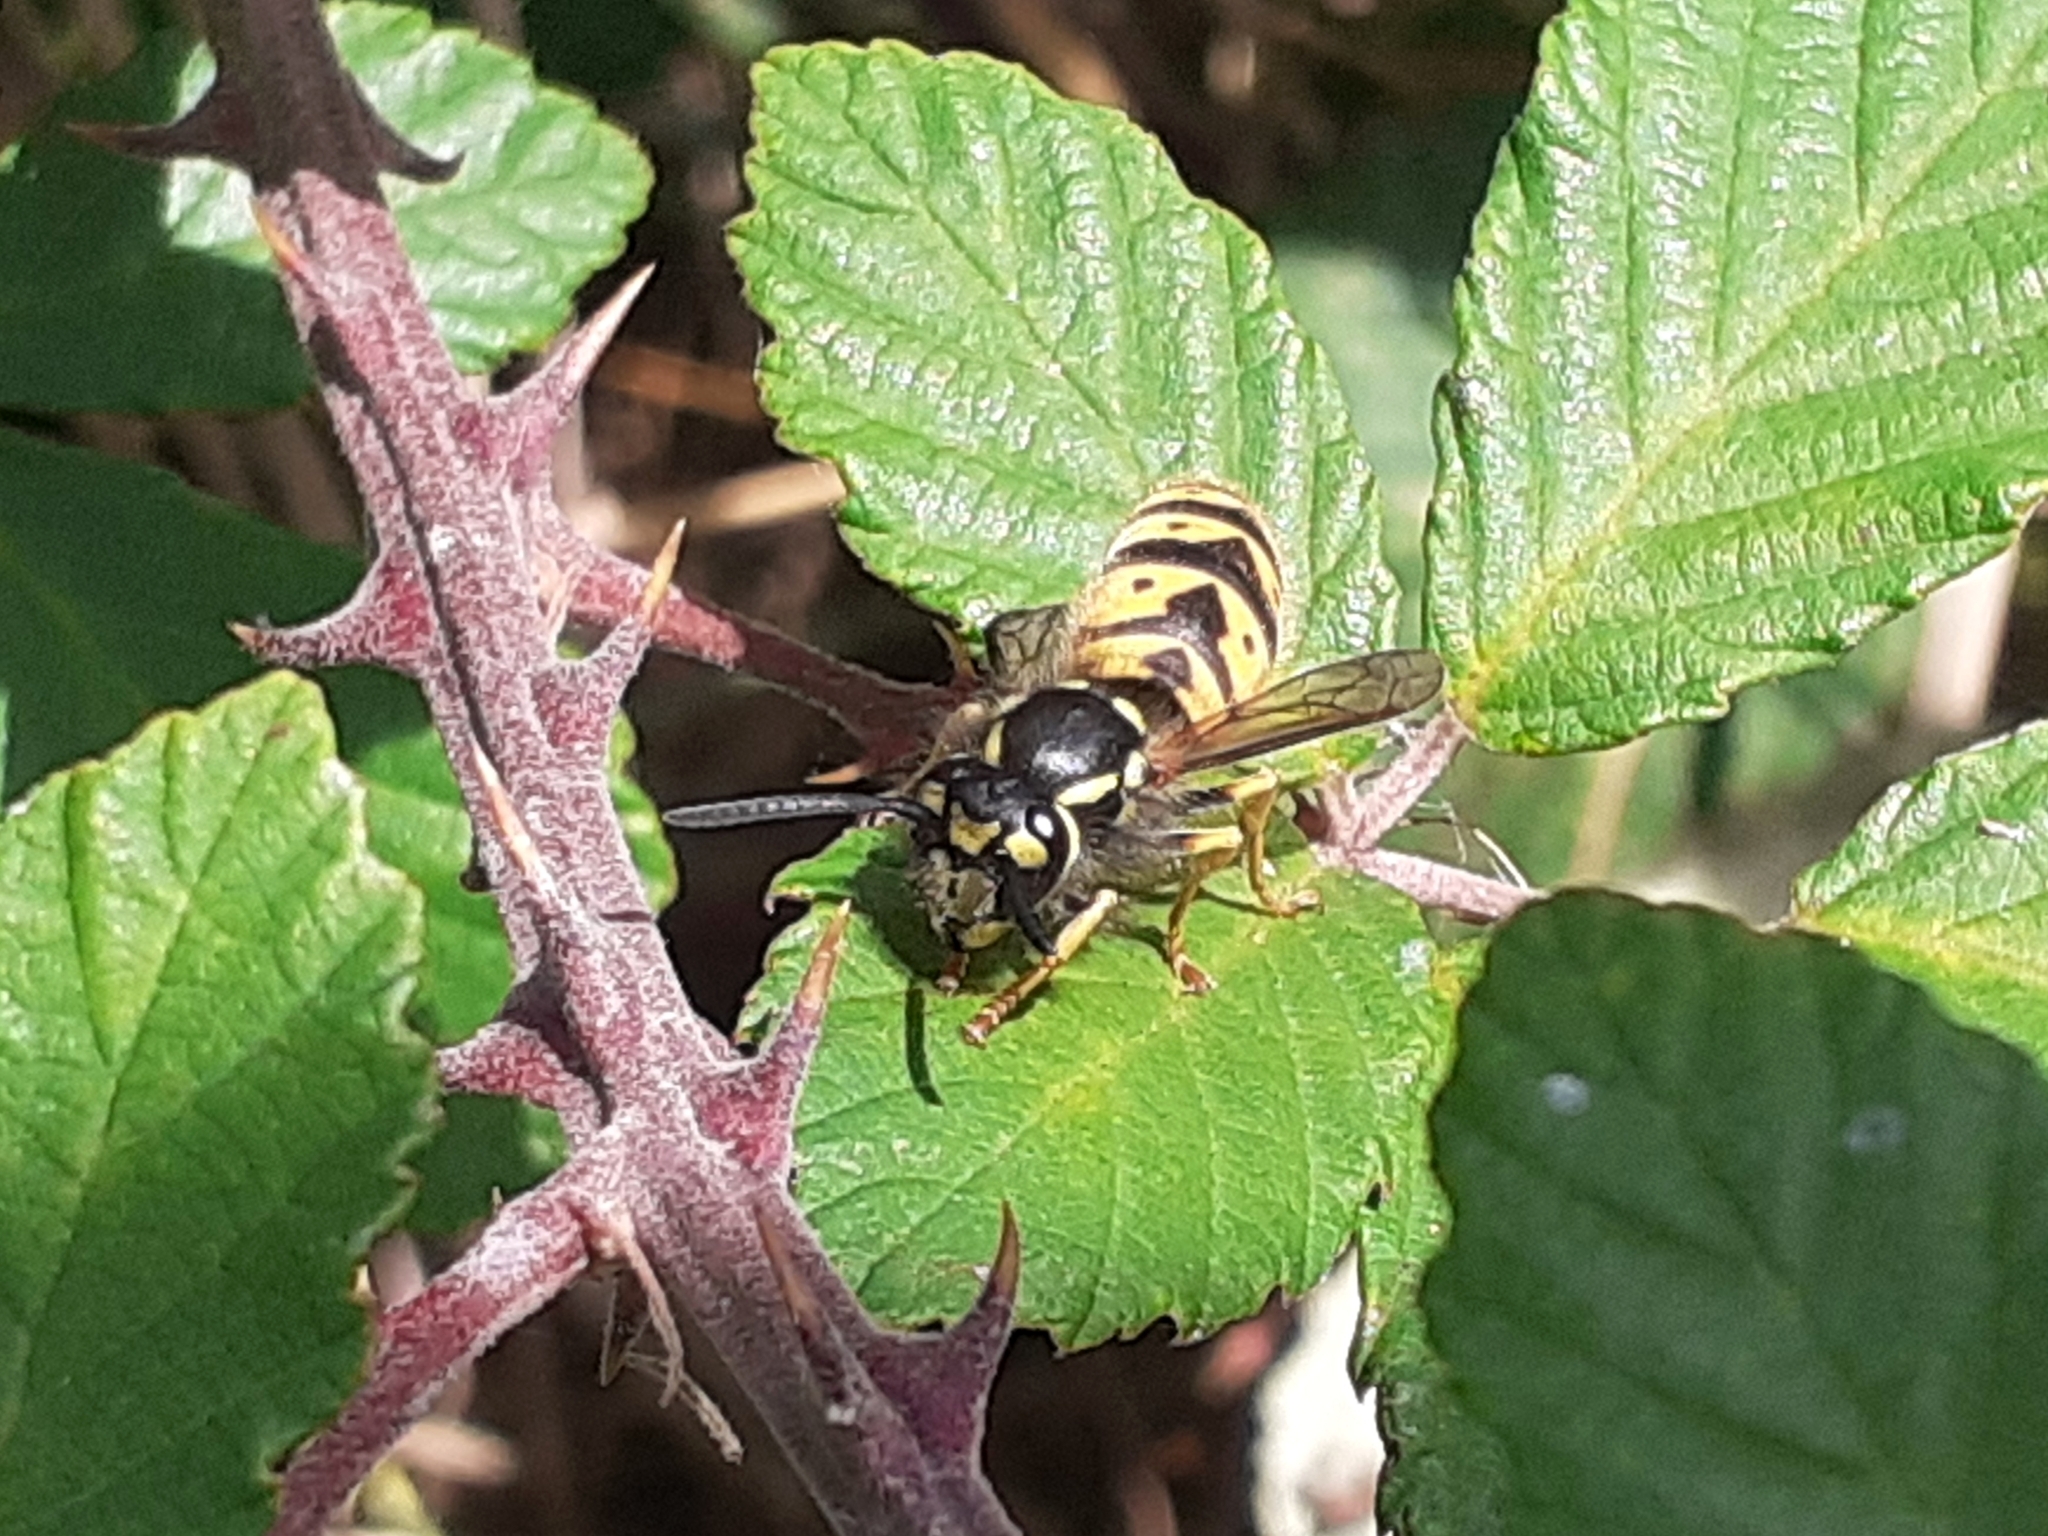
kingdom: Animalia
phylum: Arthropoda
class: Insecta
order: Hymenoptera
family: Vespidae
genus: Vespula
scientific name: Vespula germanica
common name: German wasp
